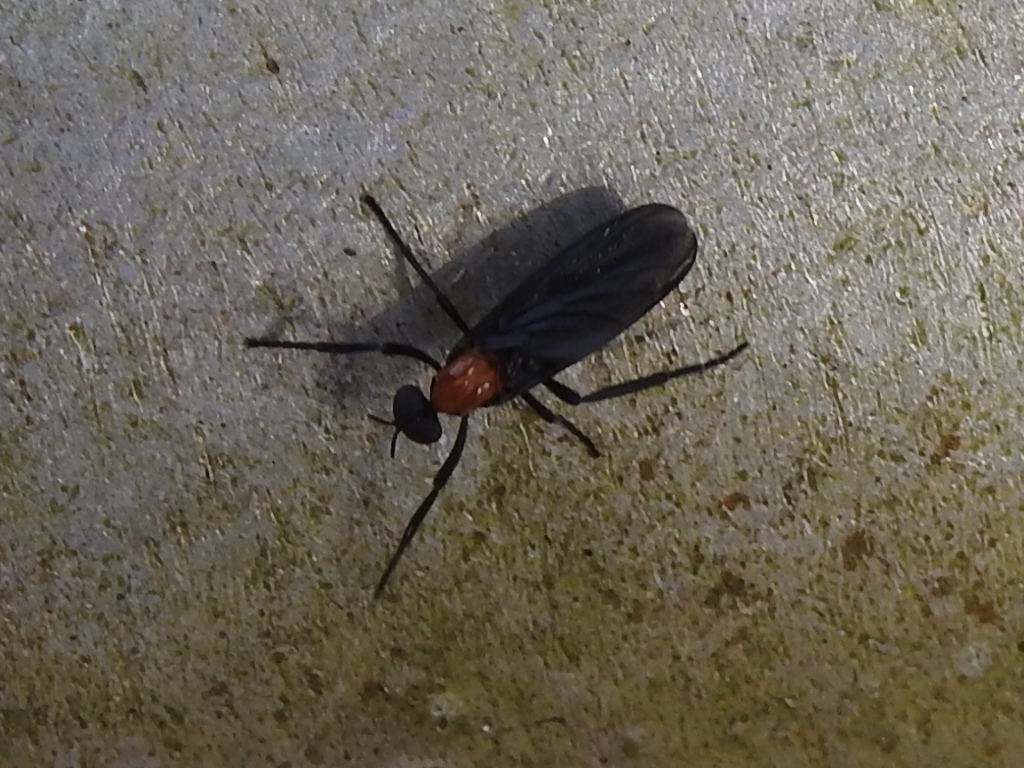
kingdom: Animalia
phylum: Arthropoda
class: Insecta
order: Diptera
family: Bibionidae
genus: Plecia
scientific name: Plecia nearctica
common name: March fly
